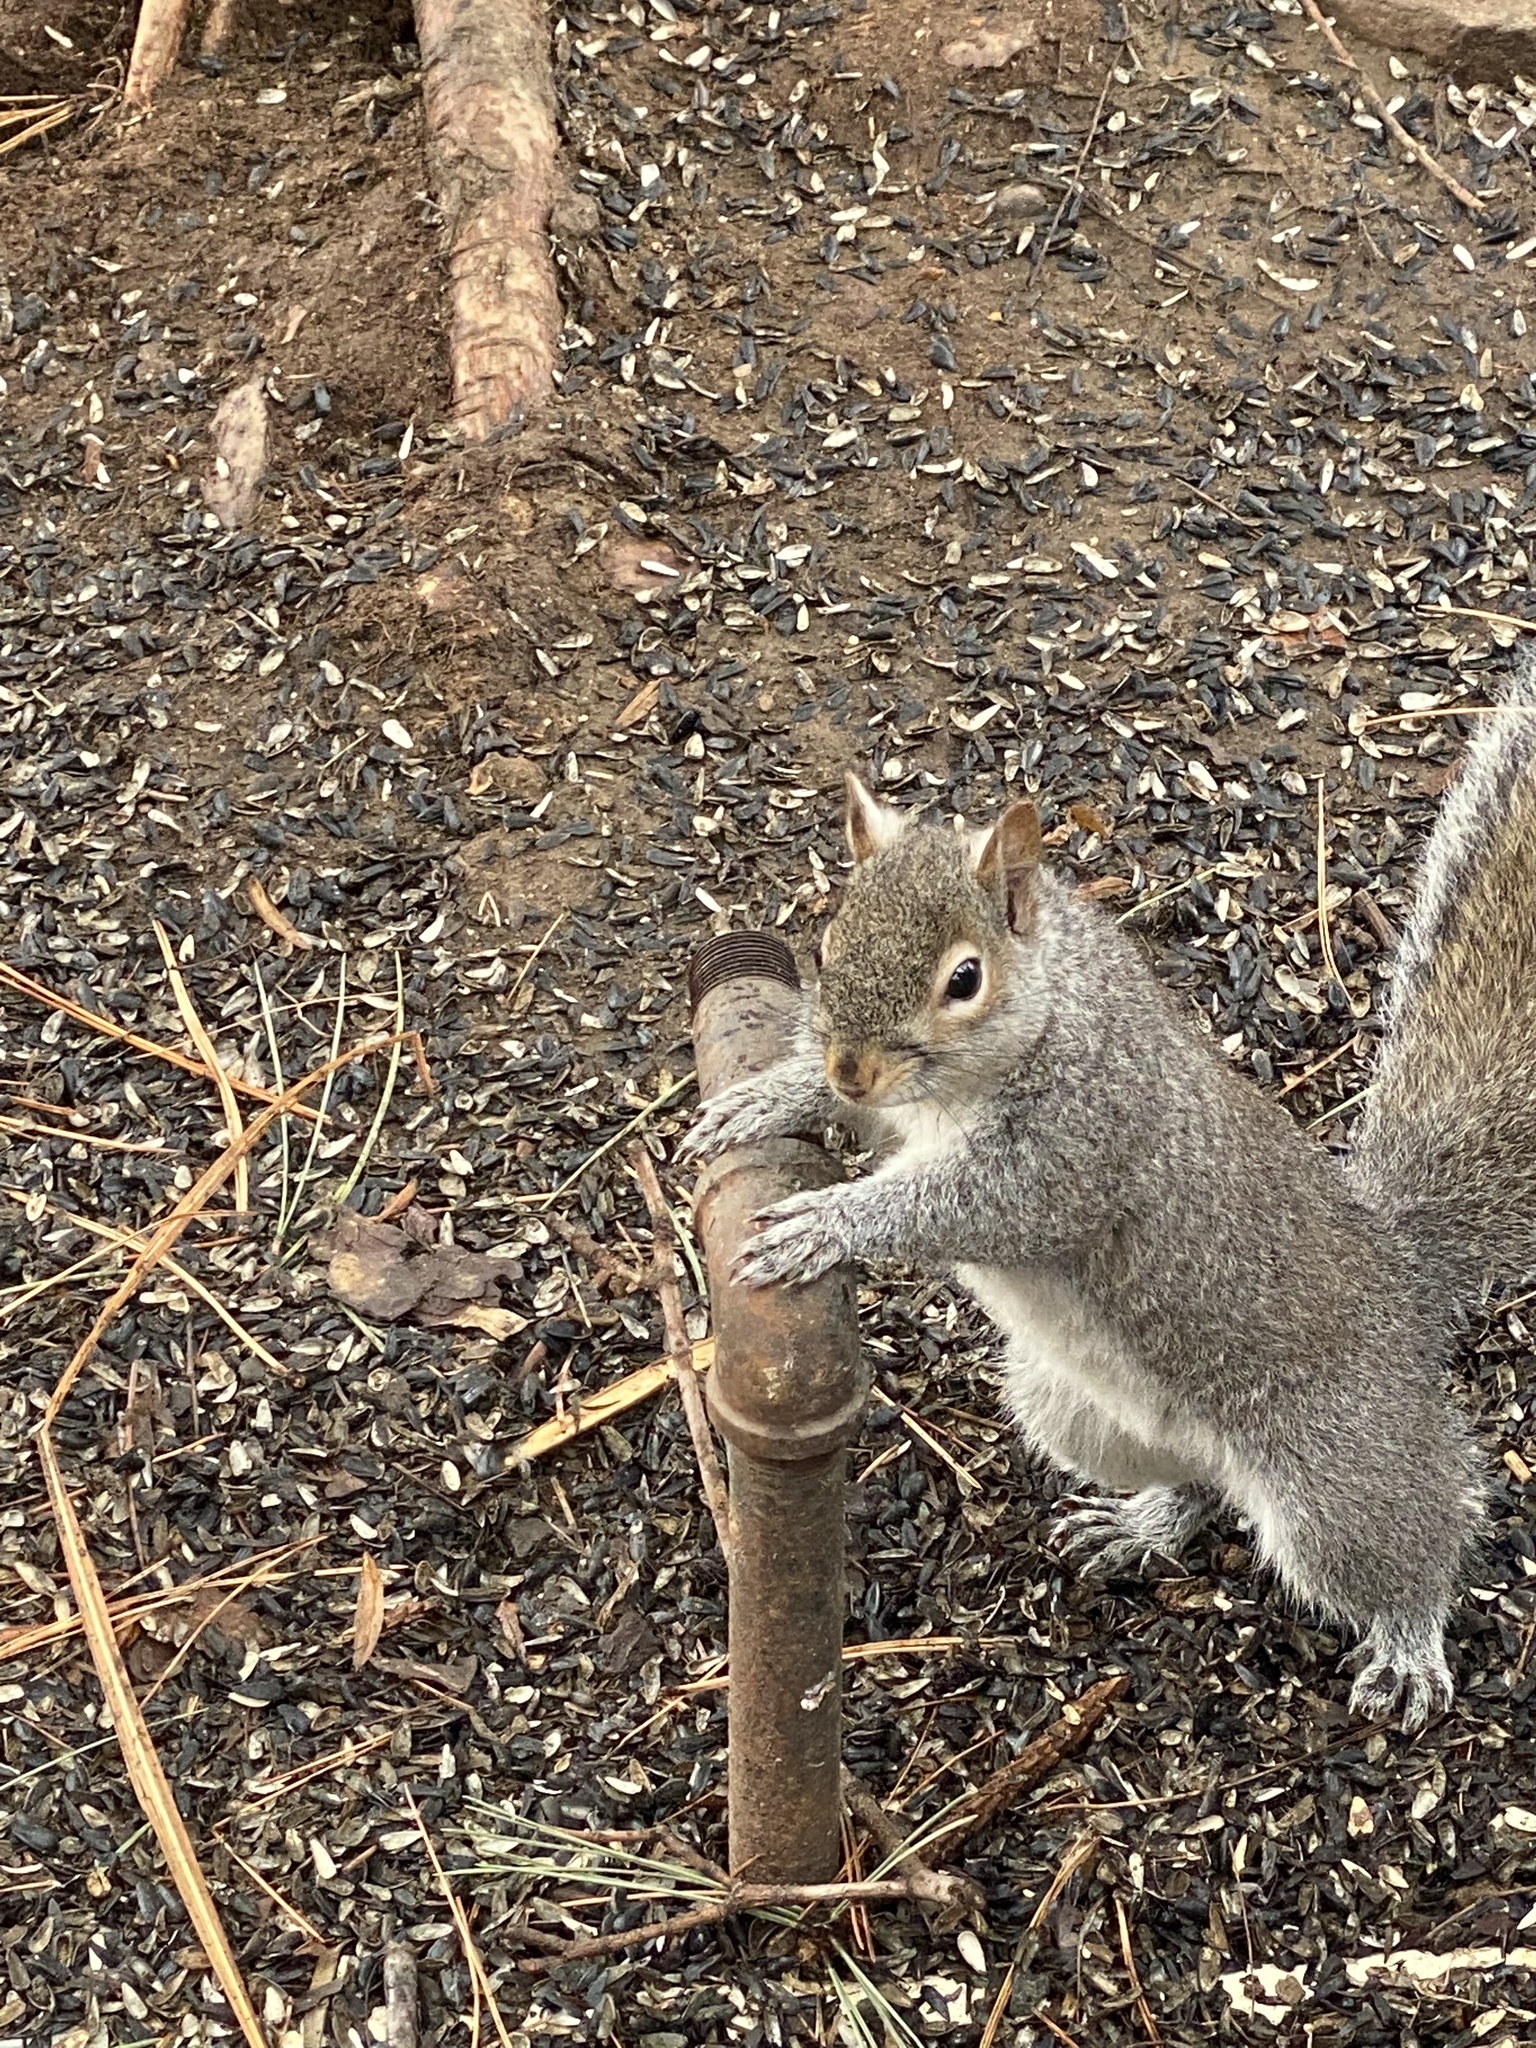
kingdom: Animalia
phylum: Chordata
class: Mammalia
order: Rodentia
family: Sciuridae
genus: Sciurus
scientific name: Sciurus carolinensis
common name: Eastern gray squirrel
